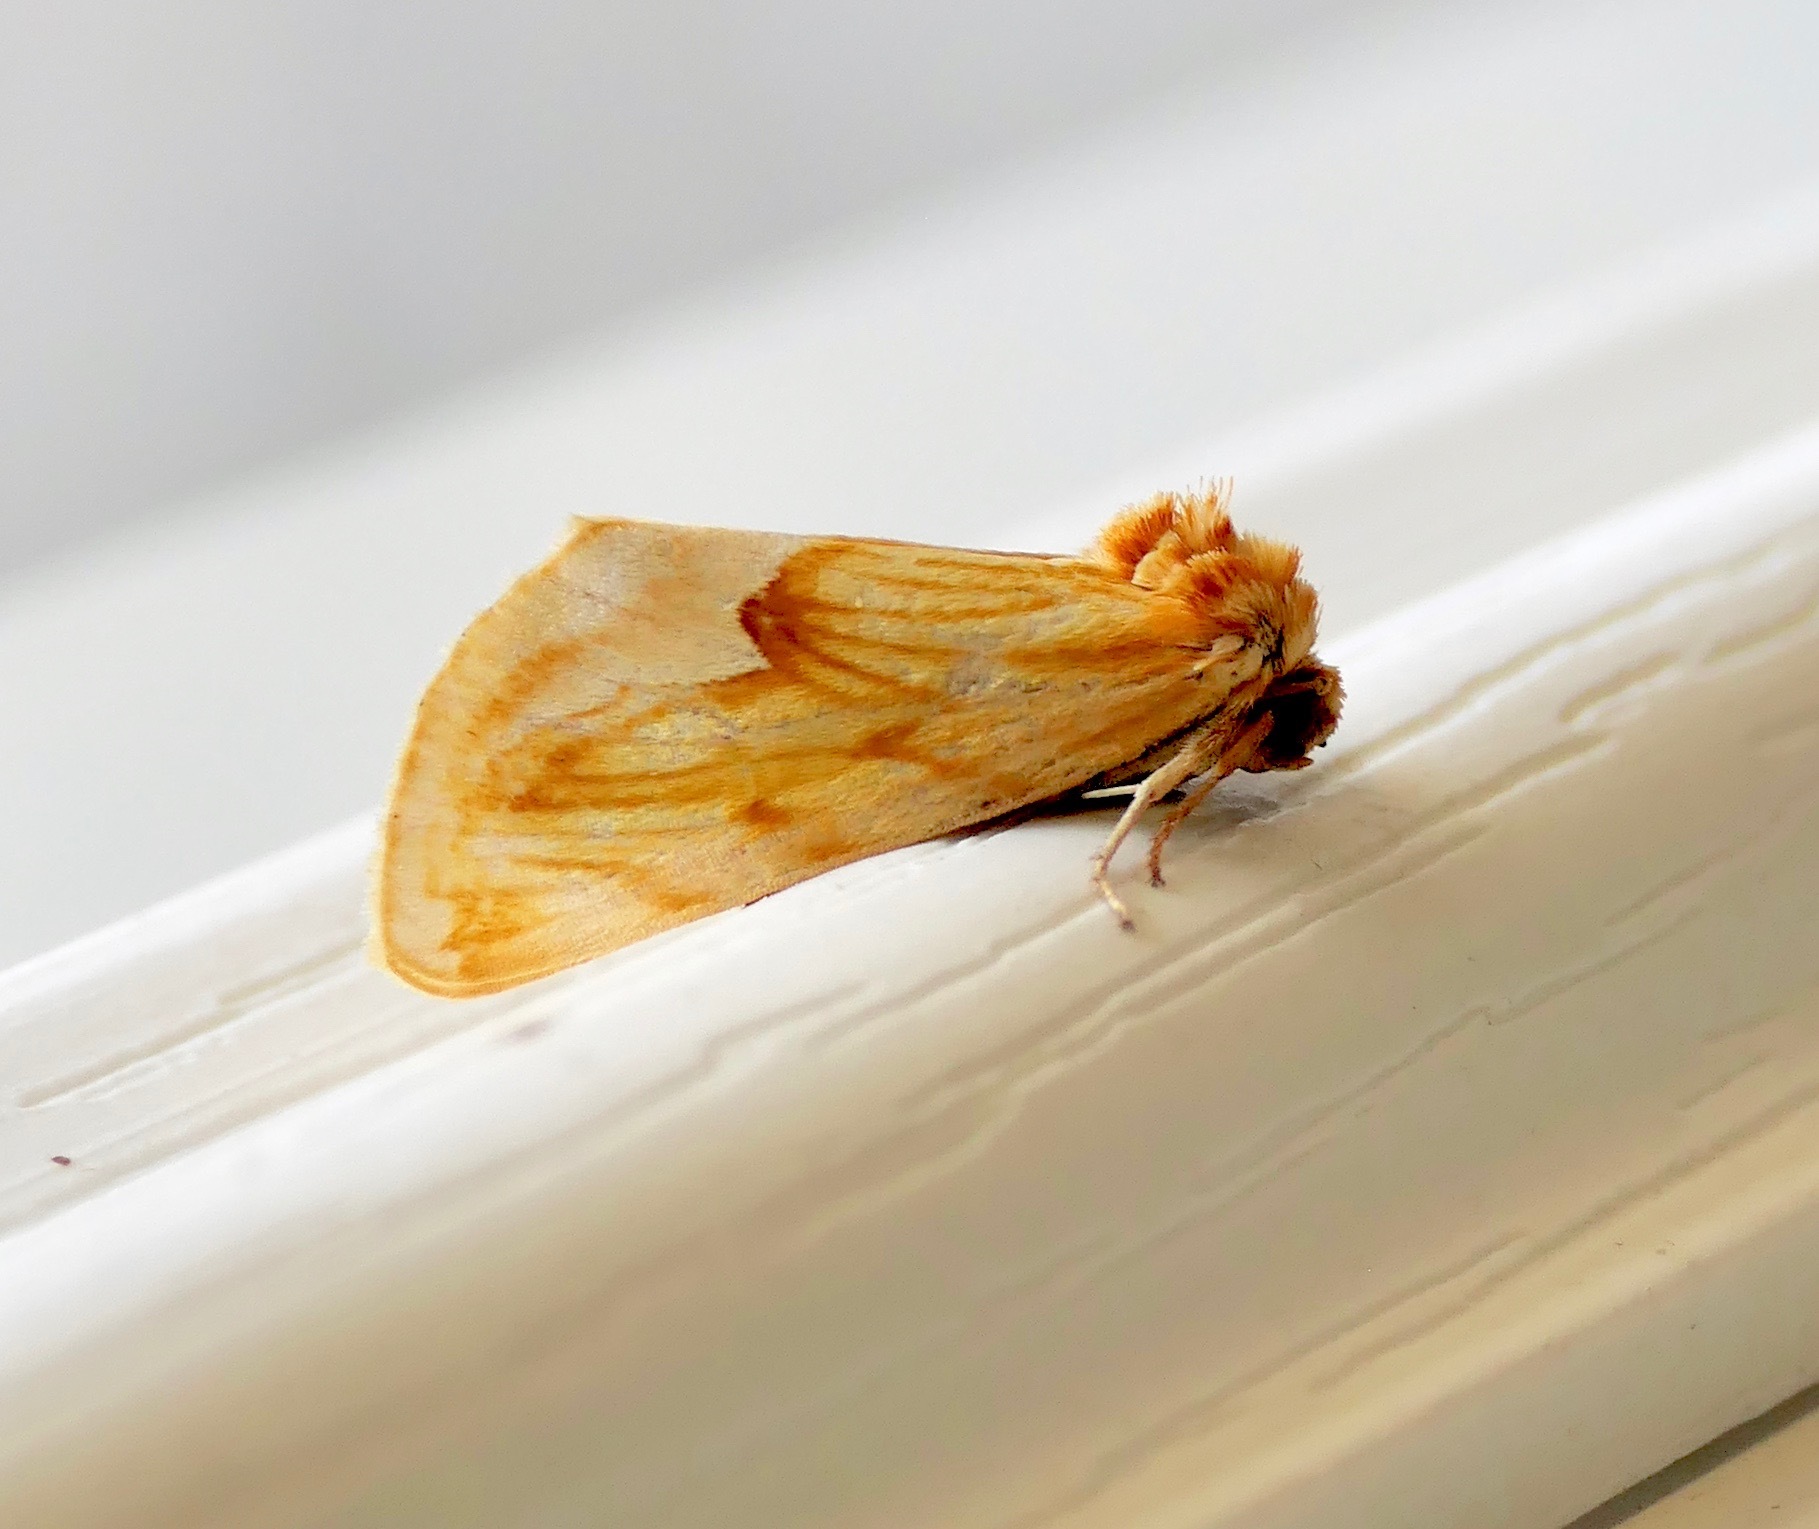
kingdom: Animalia
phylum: Arthropoda
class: Insecta
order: Lepidoptera
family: Noctuidae
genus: Cirrhophanus
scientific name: Cirrhophanus dyari
